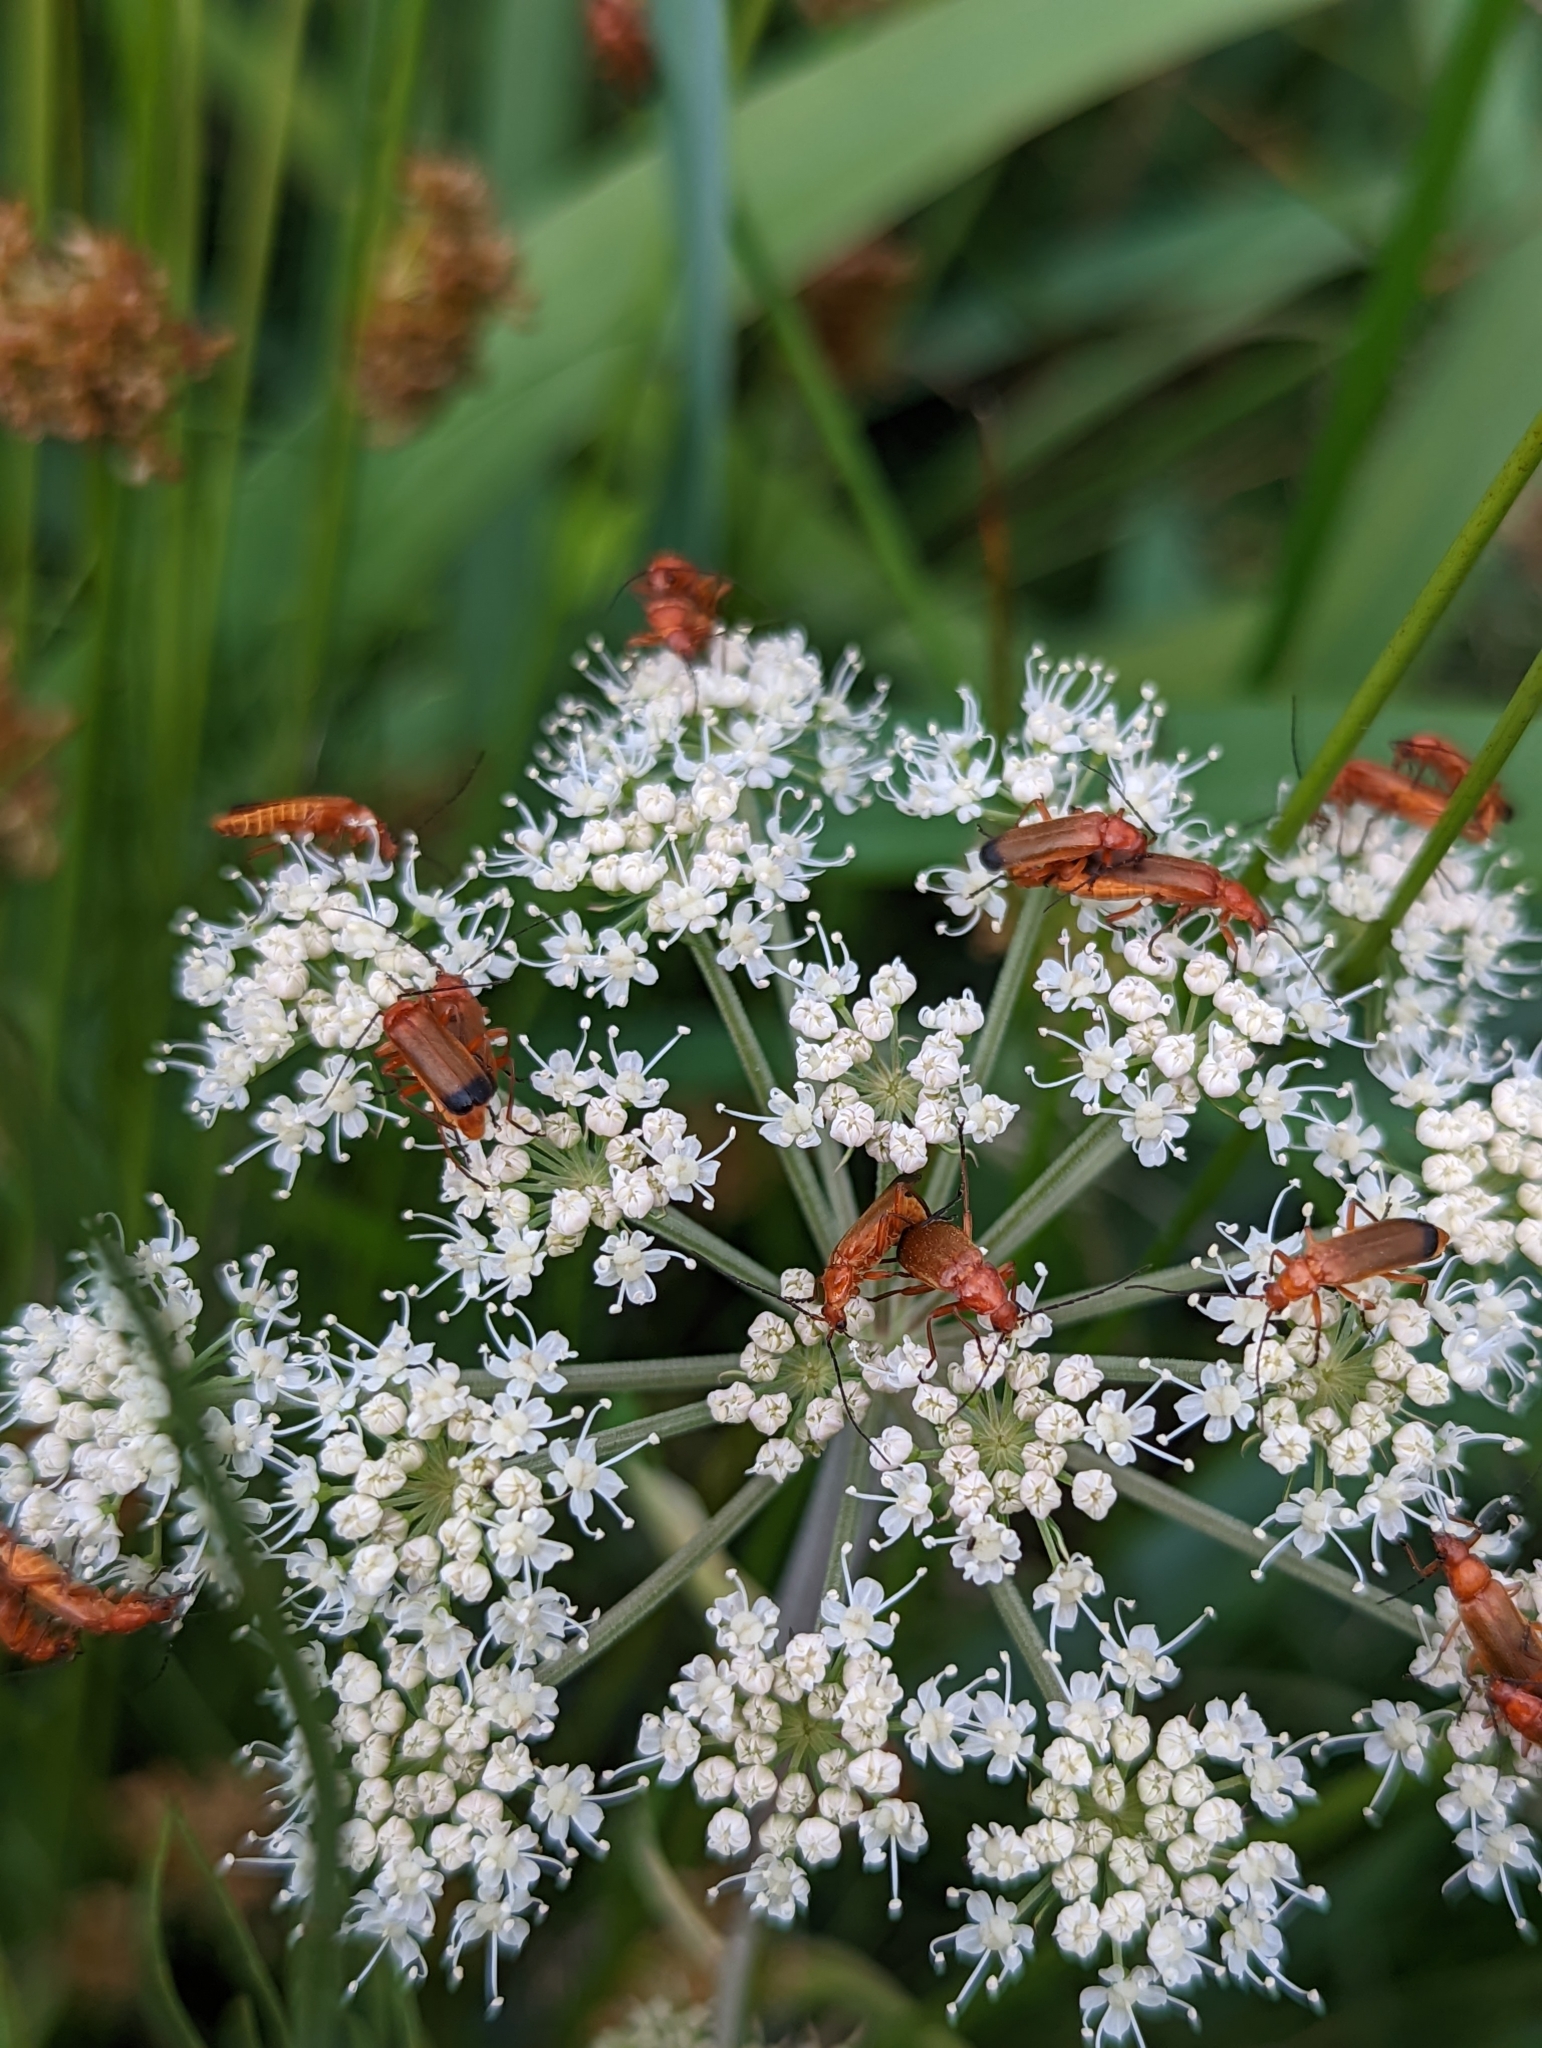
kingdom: Animalia
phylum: Arthropoda
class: Insecta
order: Coleoptera
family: Cantharidae
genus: Rhagonycha
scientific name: Rhagonycha fulva
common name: Common red soldier beetle
